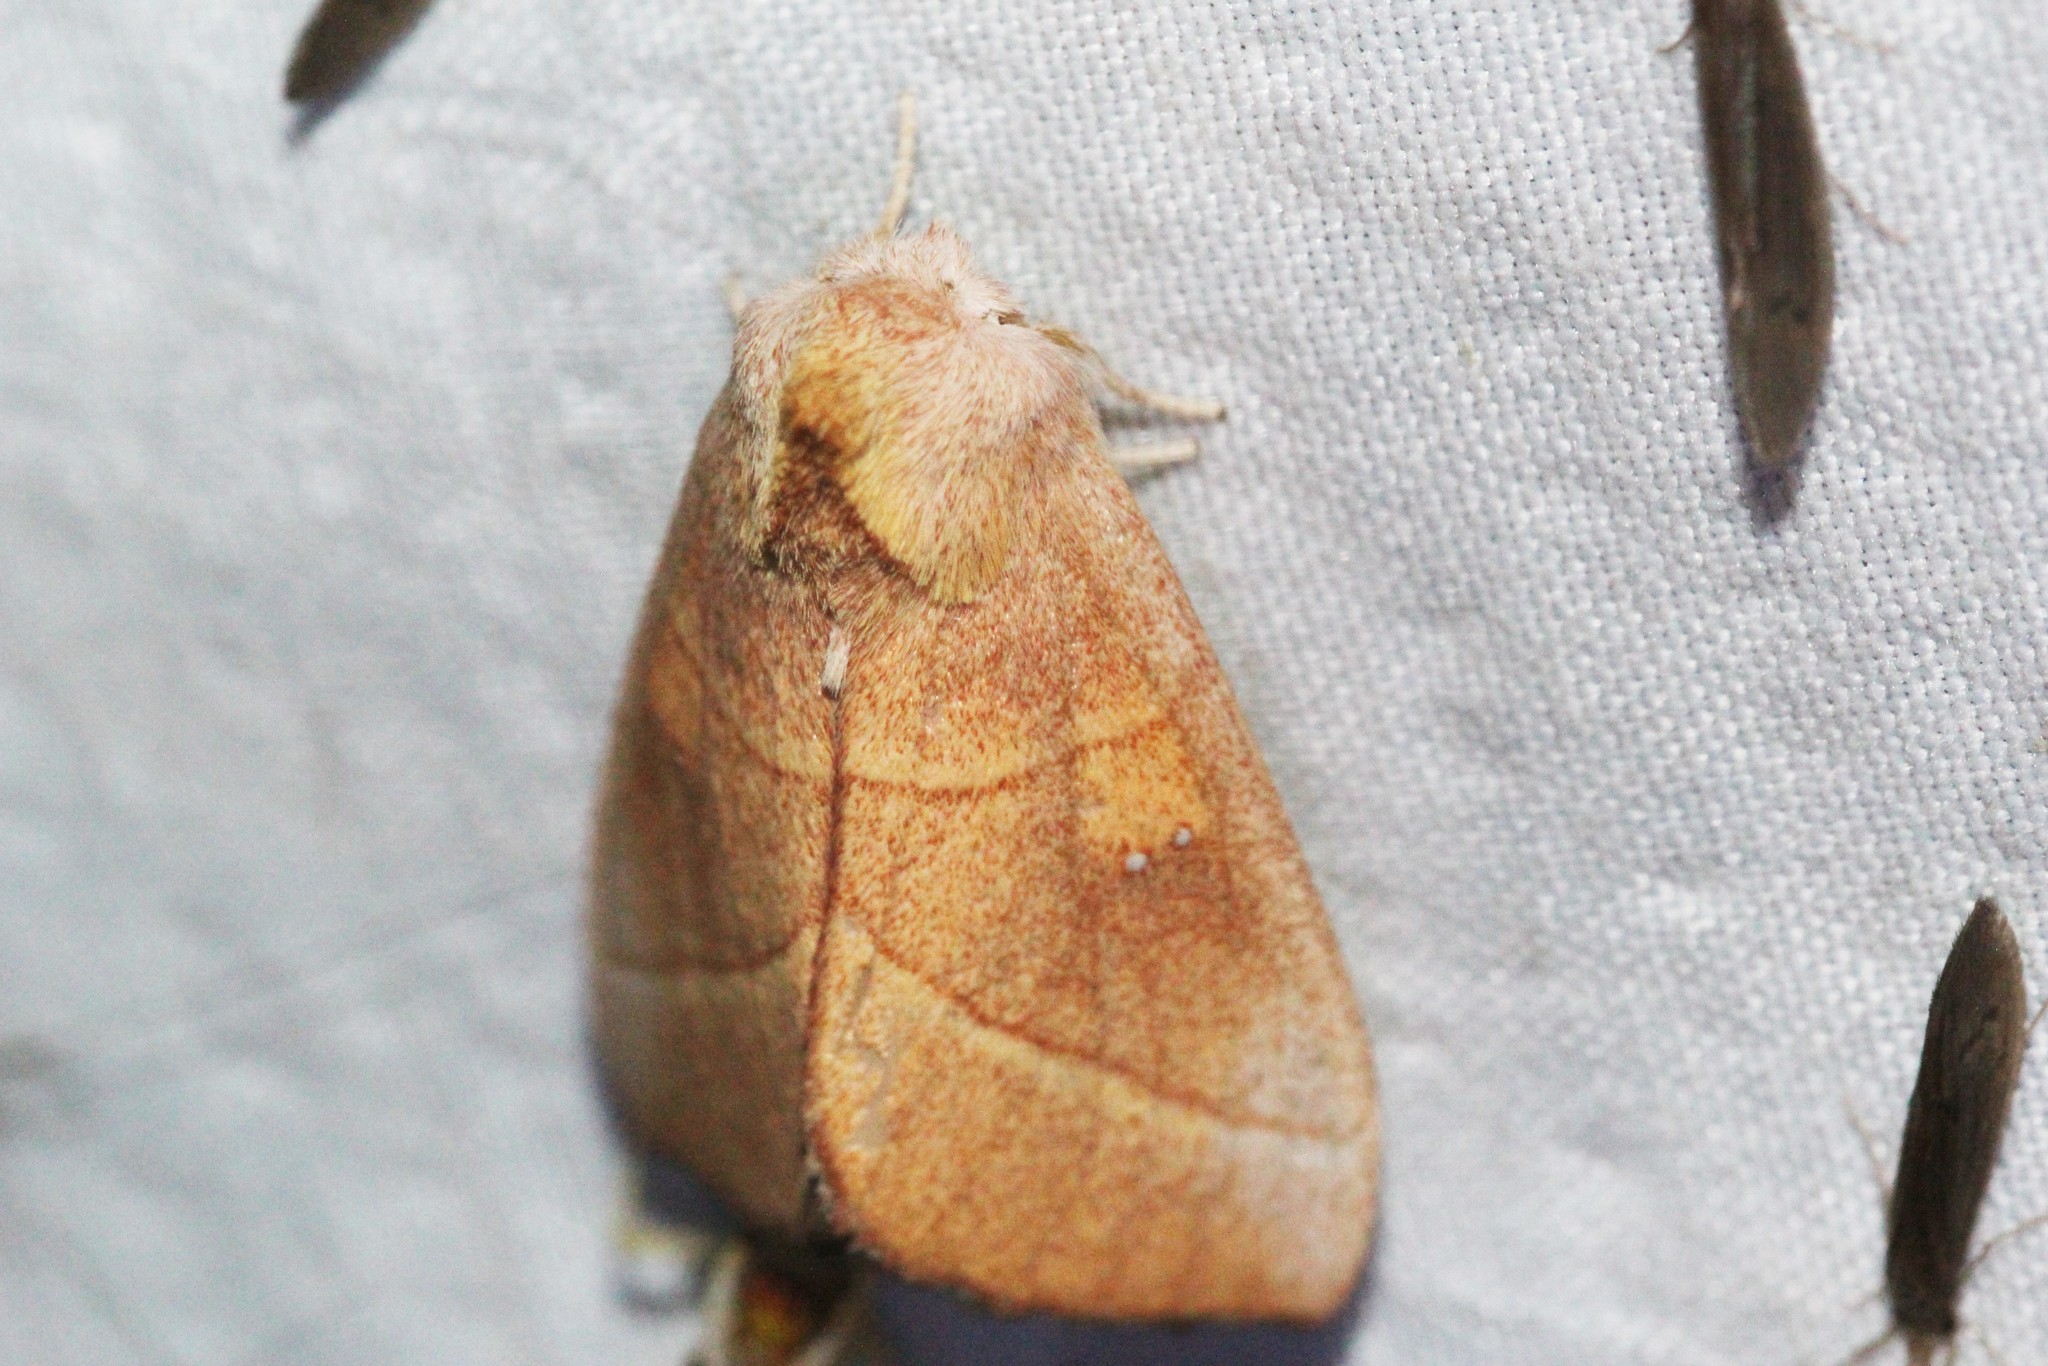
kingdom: Animalia
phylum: Arthropoda
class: Insecta
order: Lepidoptera
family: Notodontidae
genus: Nadata
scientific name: Nadata gibbosa
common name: White-dotted prominent
